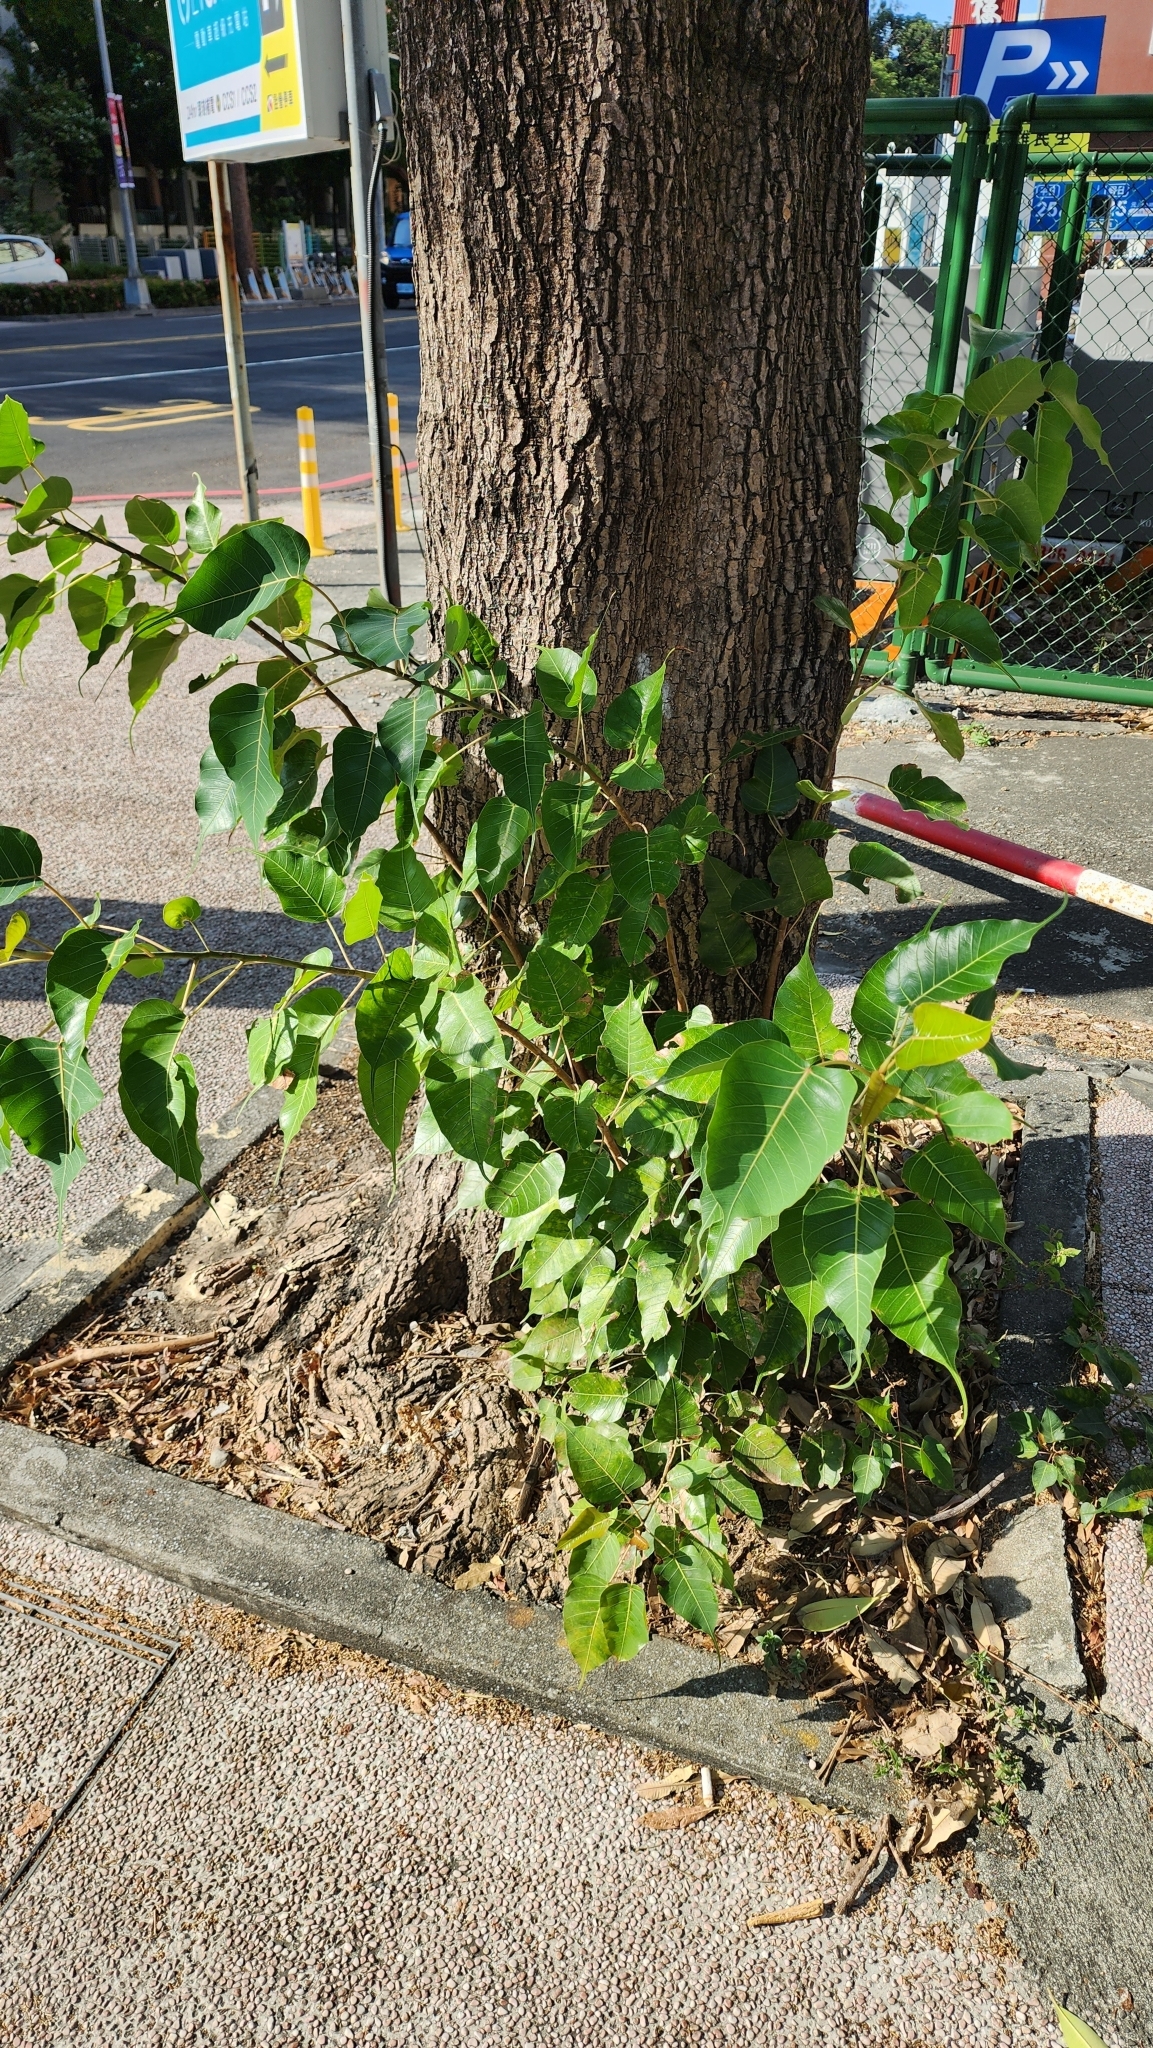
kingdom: Plantae
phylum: Tracheophyta
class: Magnoliopsida
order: Rosales
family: Moraceae
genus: Ficus
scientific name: Ficus religiosa
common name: Bodhi tree
